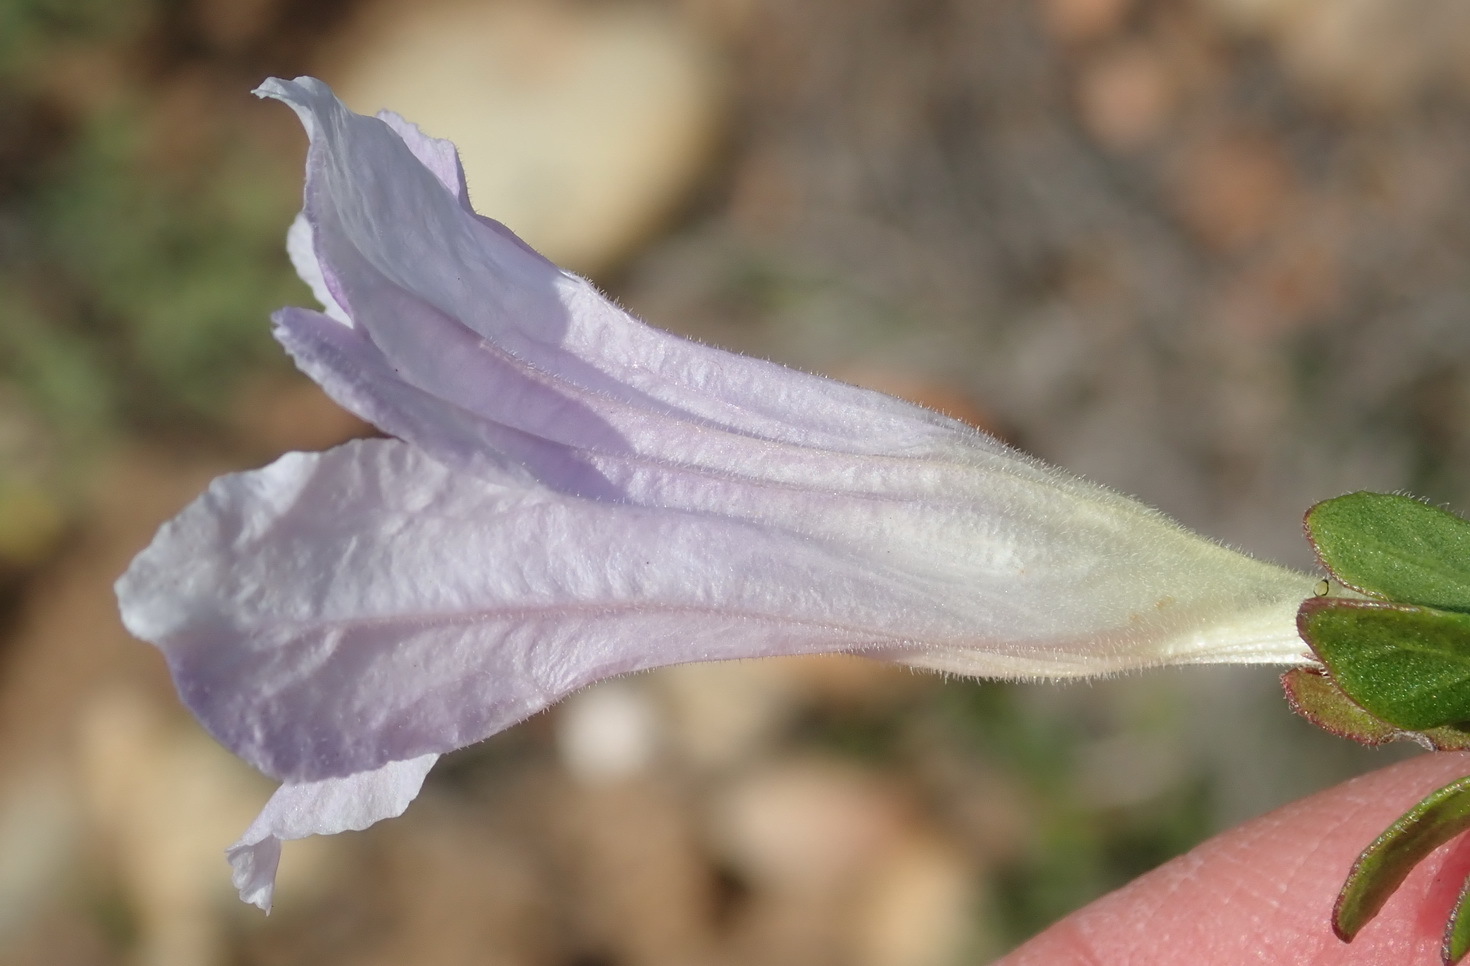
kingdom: Plantae
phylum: Tracheophyta
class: Magnoliopsida
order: Lamiales
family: Acanthaceae
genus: Ruellia
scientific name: Ruellia pilosa
